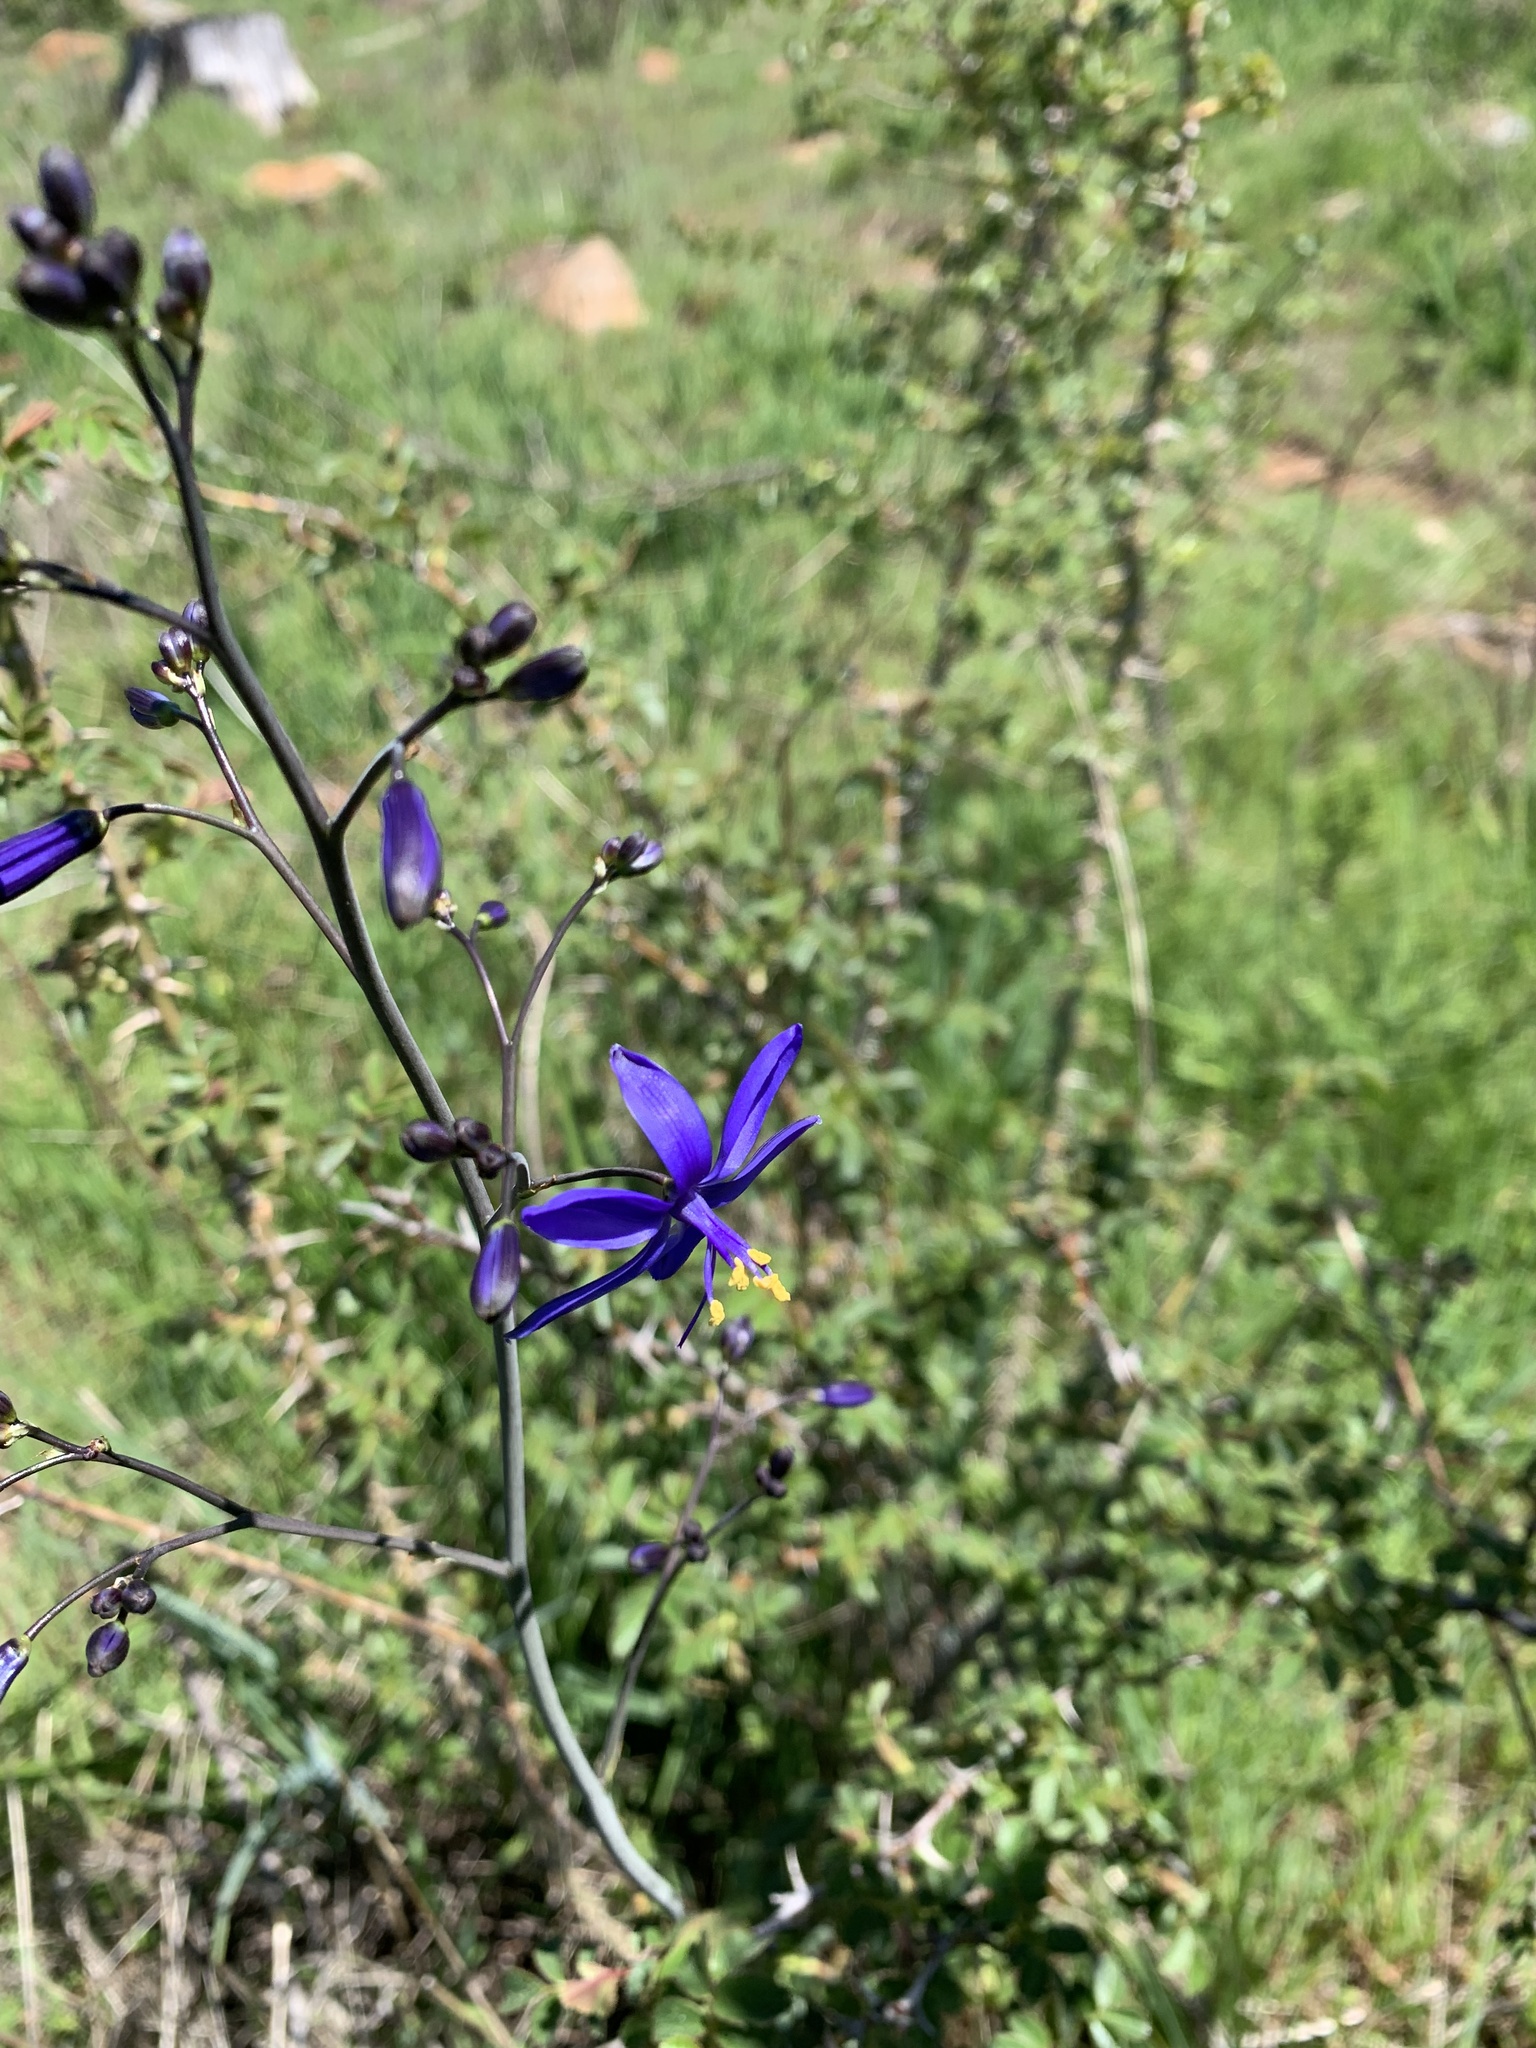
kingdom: Plantae
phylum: Tracheophyta
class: Liliopsida
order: Asparagales
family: Asphodelaceae
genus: Pasithea
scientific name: Pasithea caerulea
